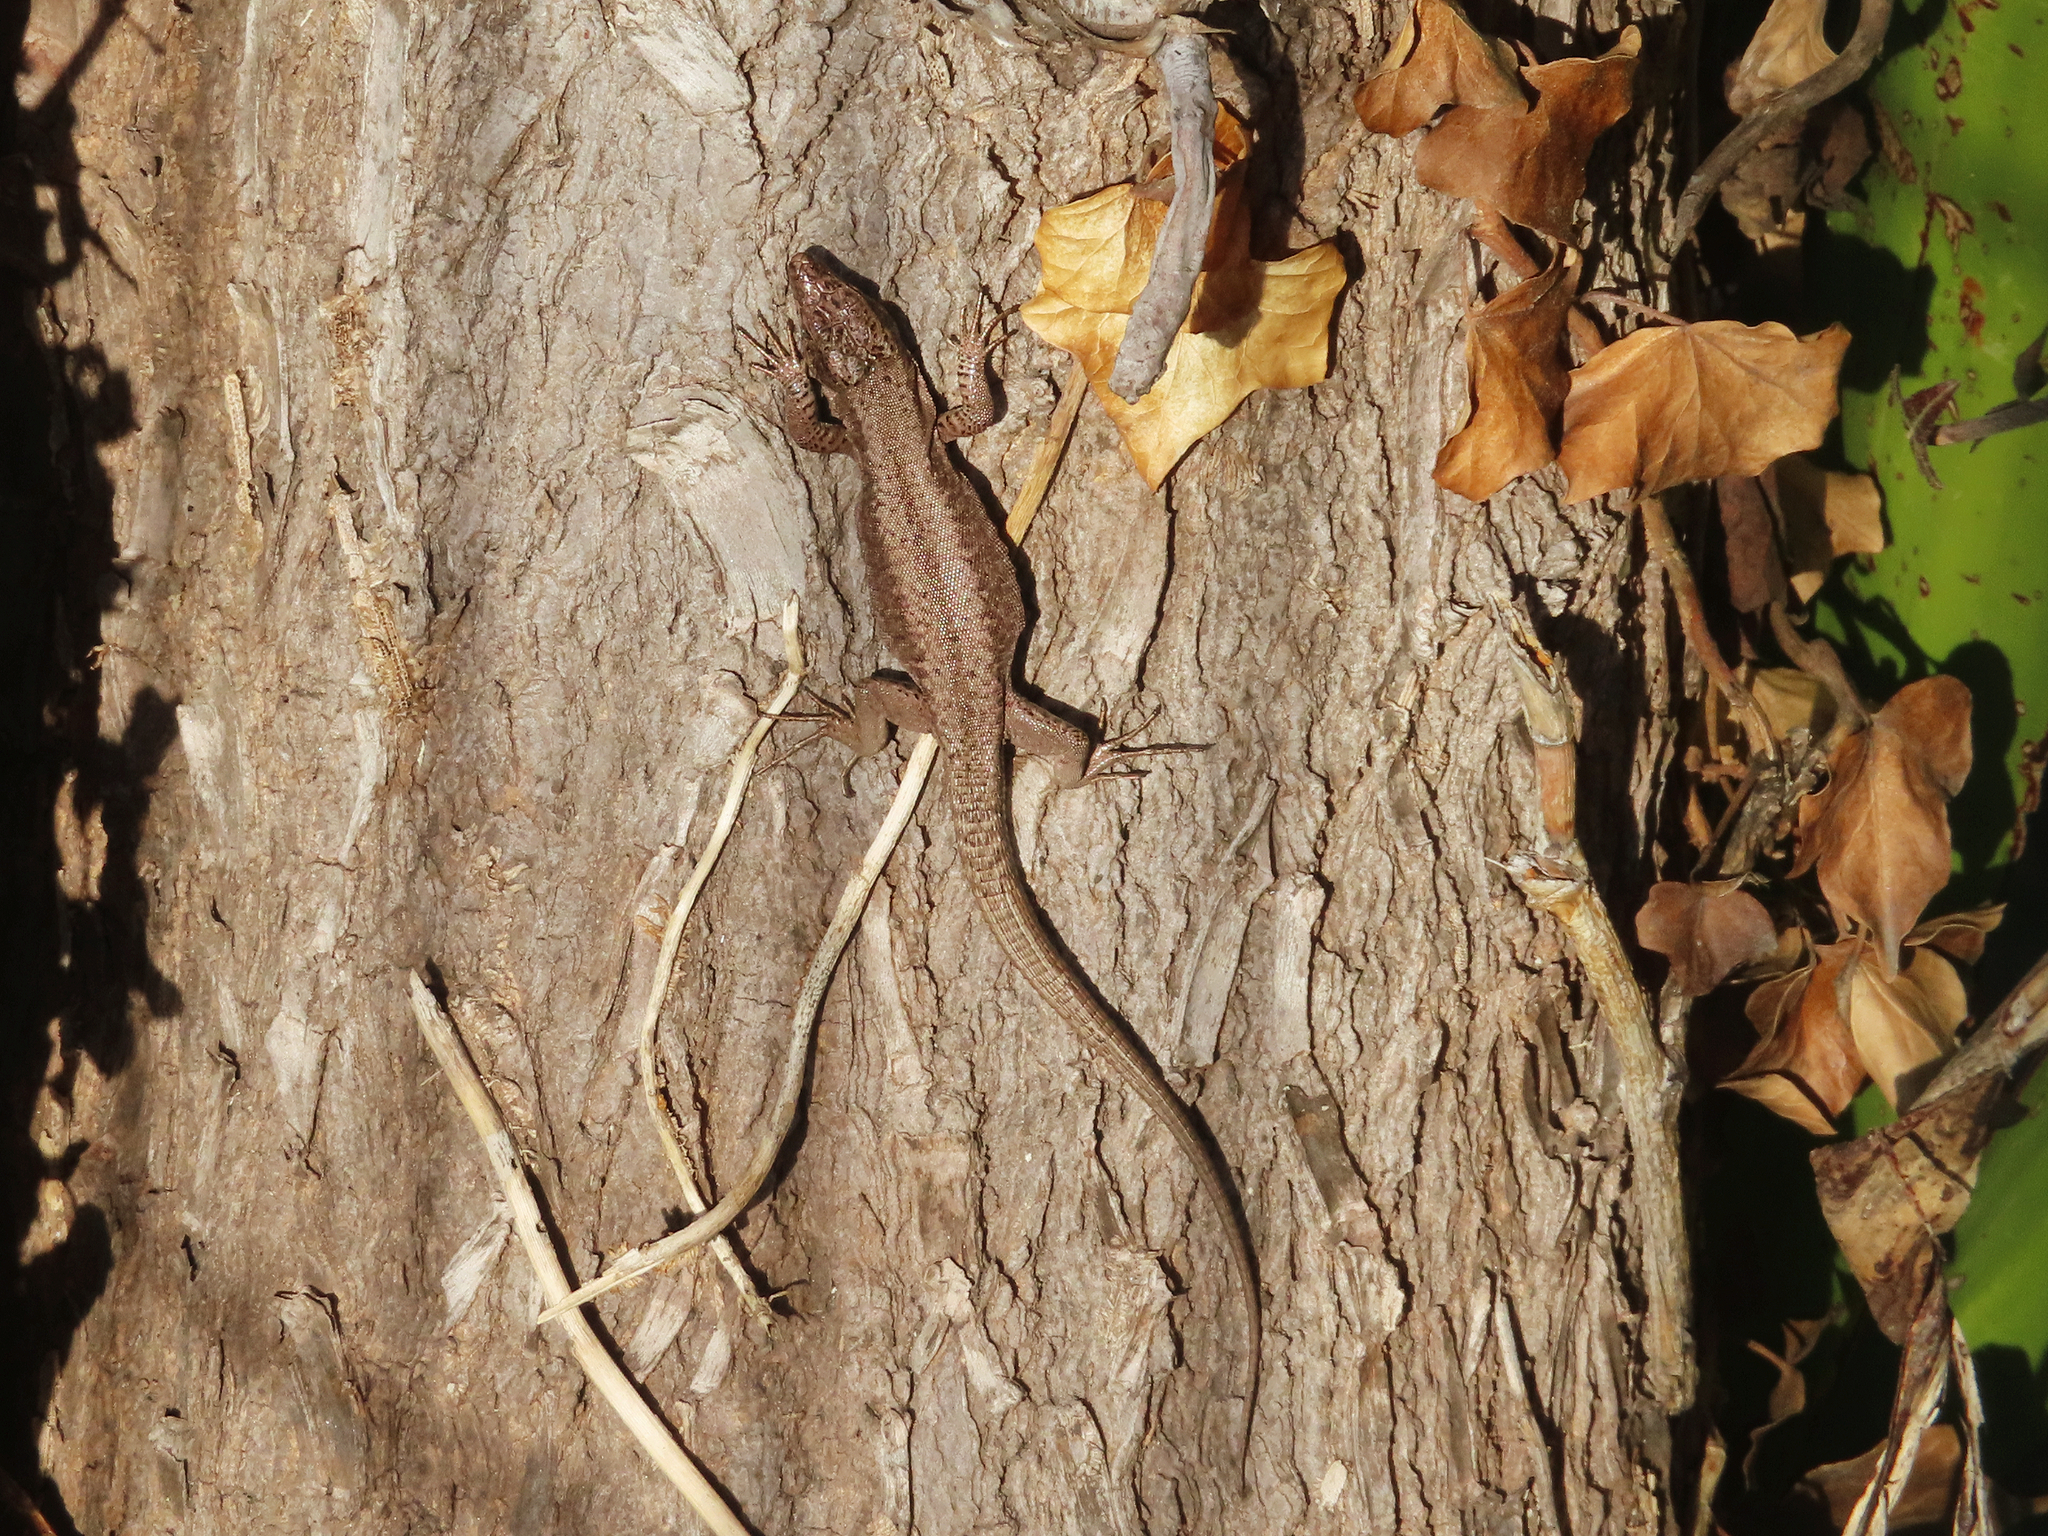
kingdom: Animalia
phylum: Chordata
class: Squamata
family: Lacertidae
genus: Podarcis
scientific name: Podarcis muralis
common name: Common wall lizard
